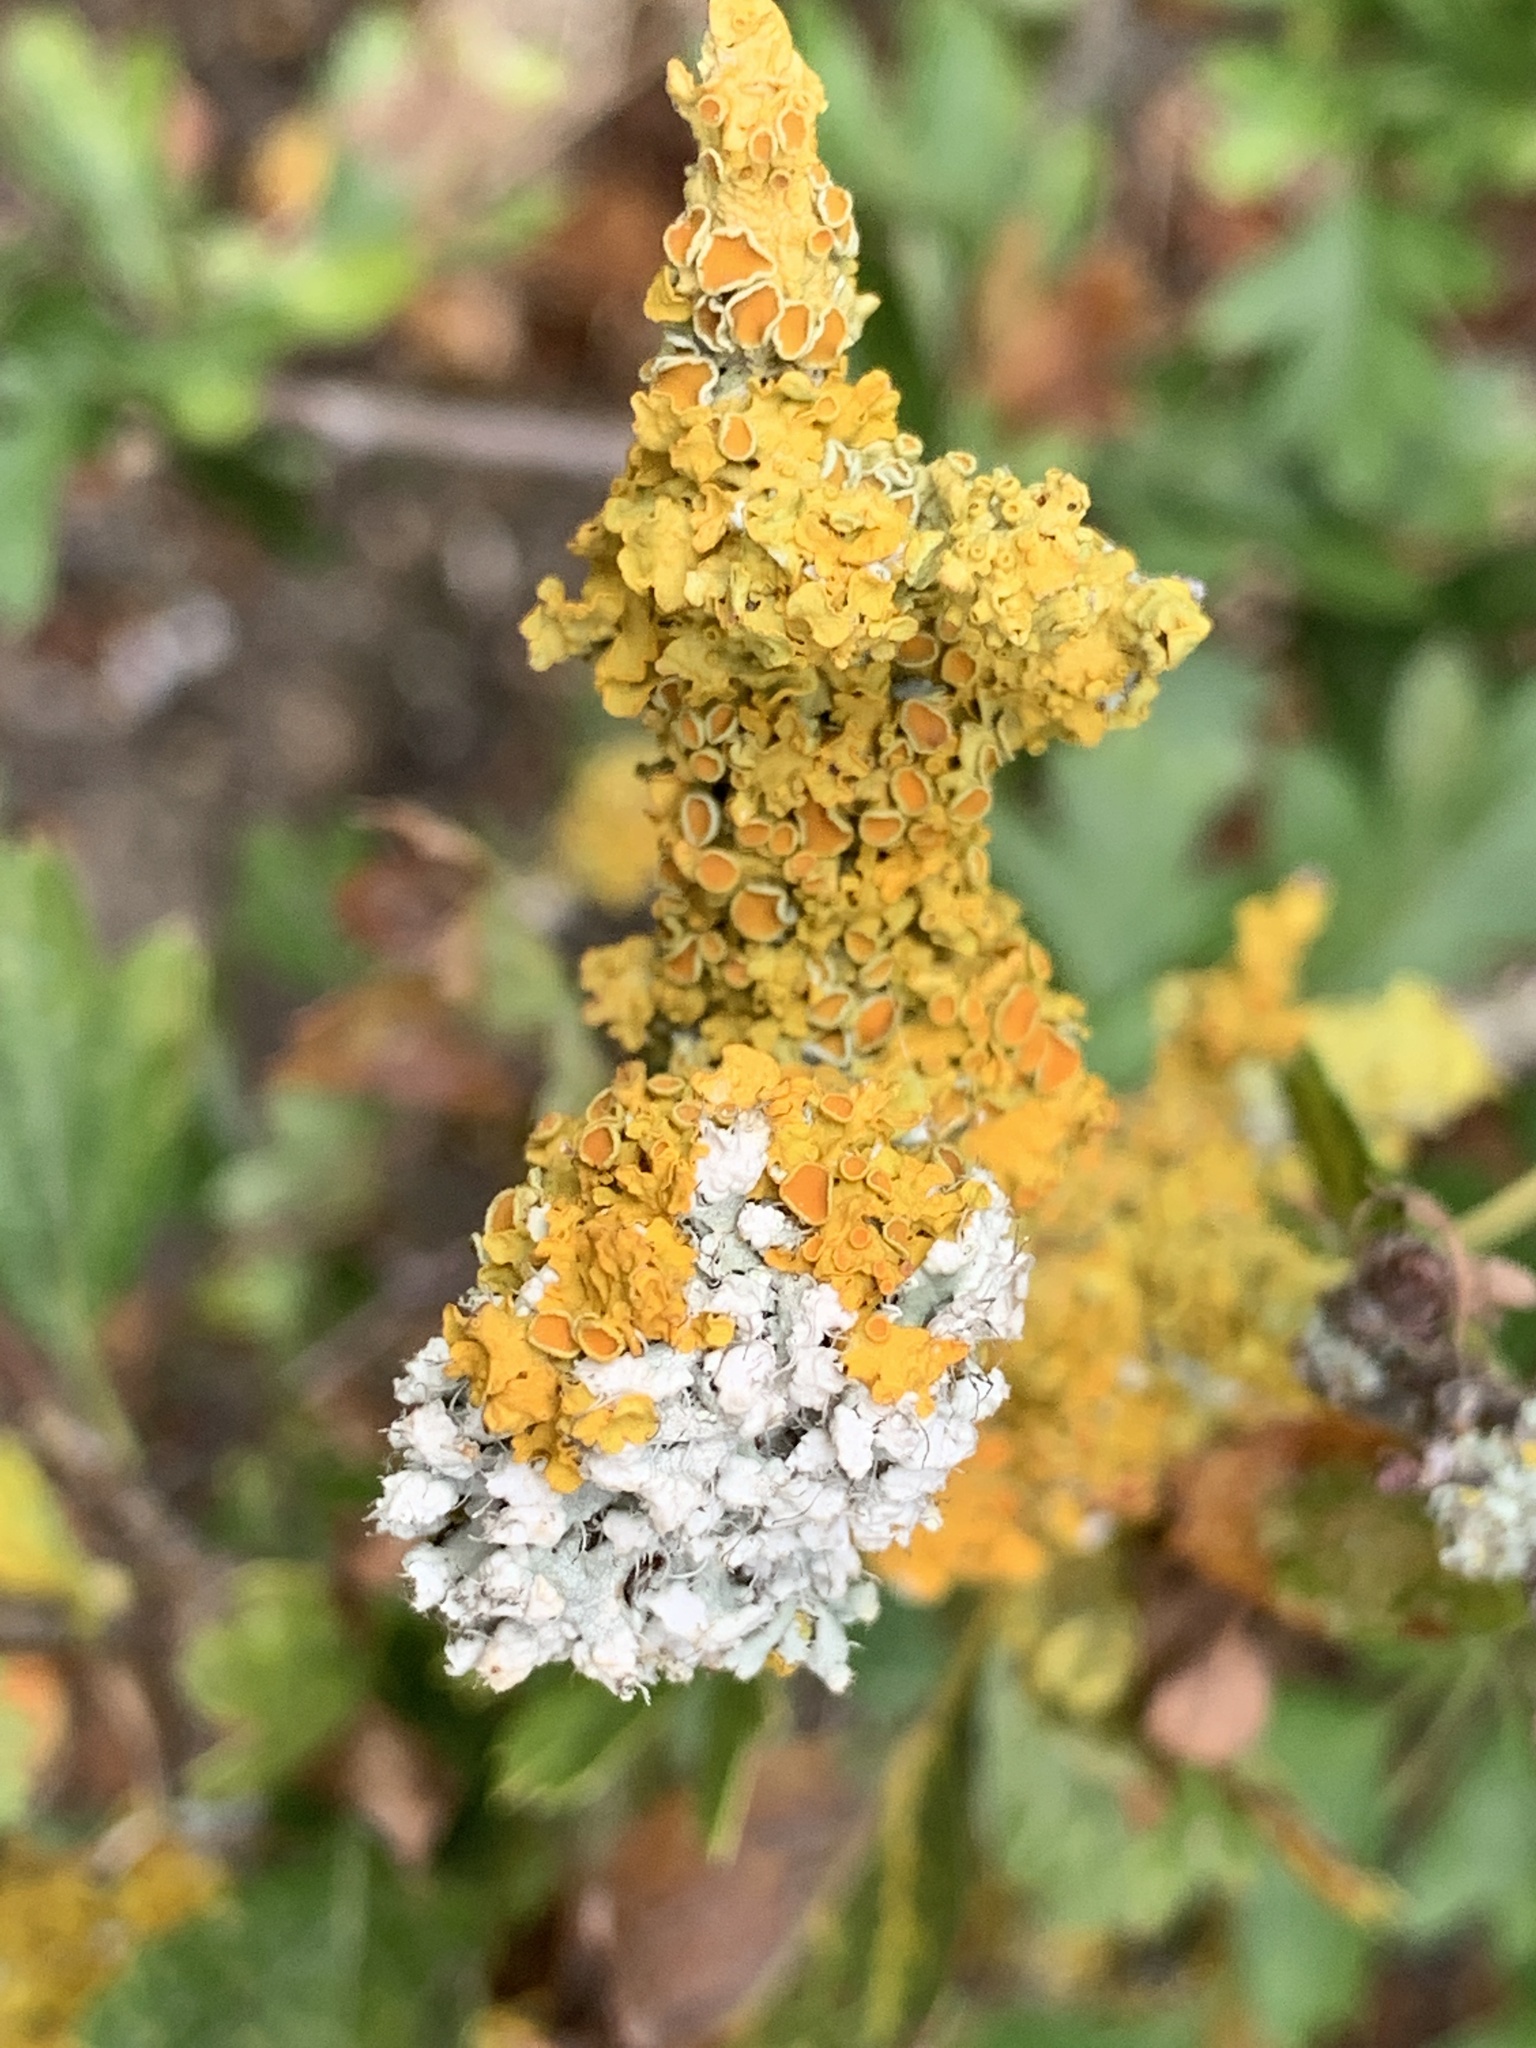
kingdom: Fungi
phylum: Ascomycota
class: Lecanoromycetes
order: Teloschistales
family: Teloschistaceae
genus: Xanthoria
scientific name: Xanthoria parietina
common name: Common orange lichen
